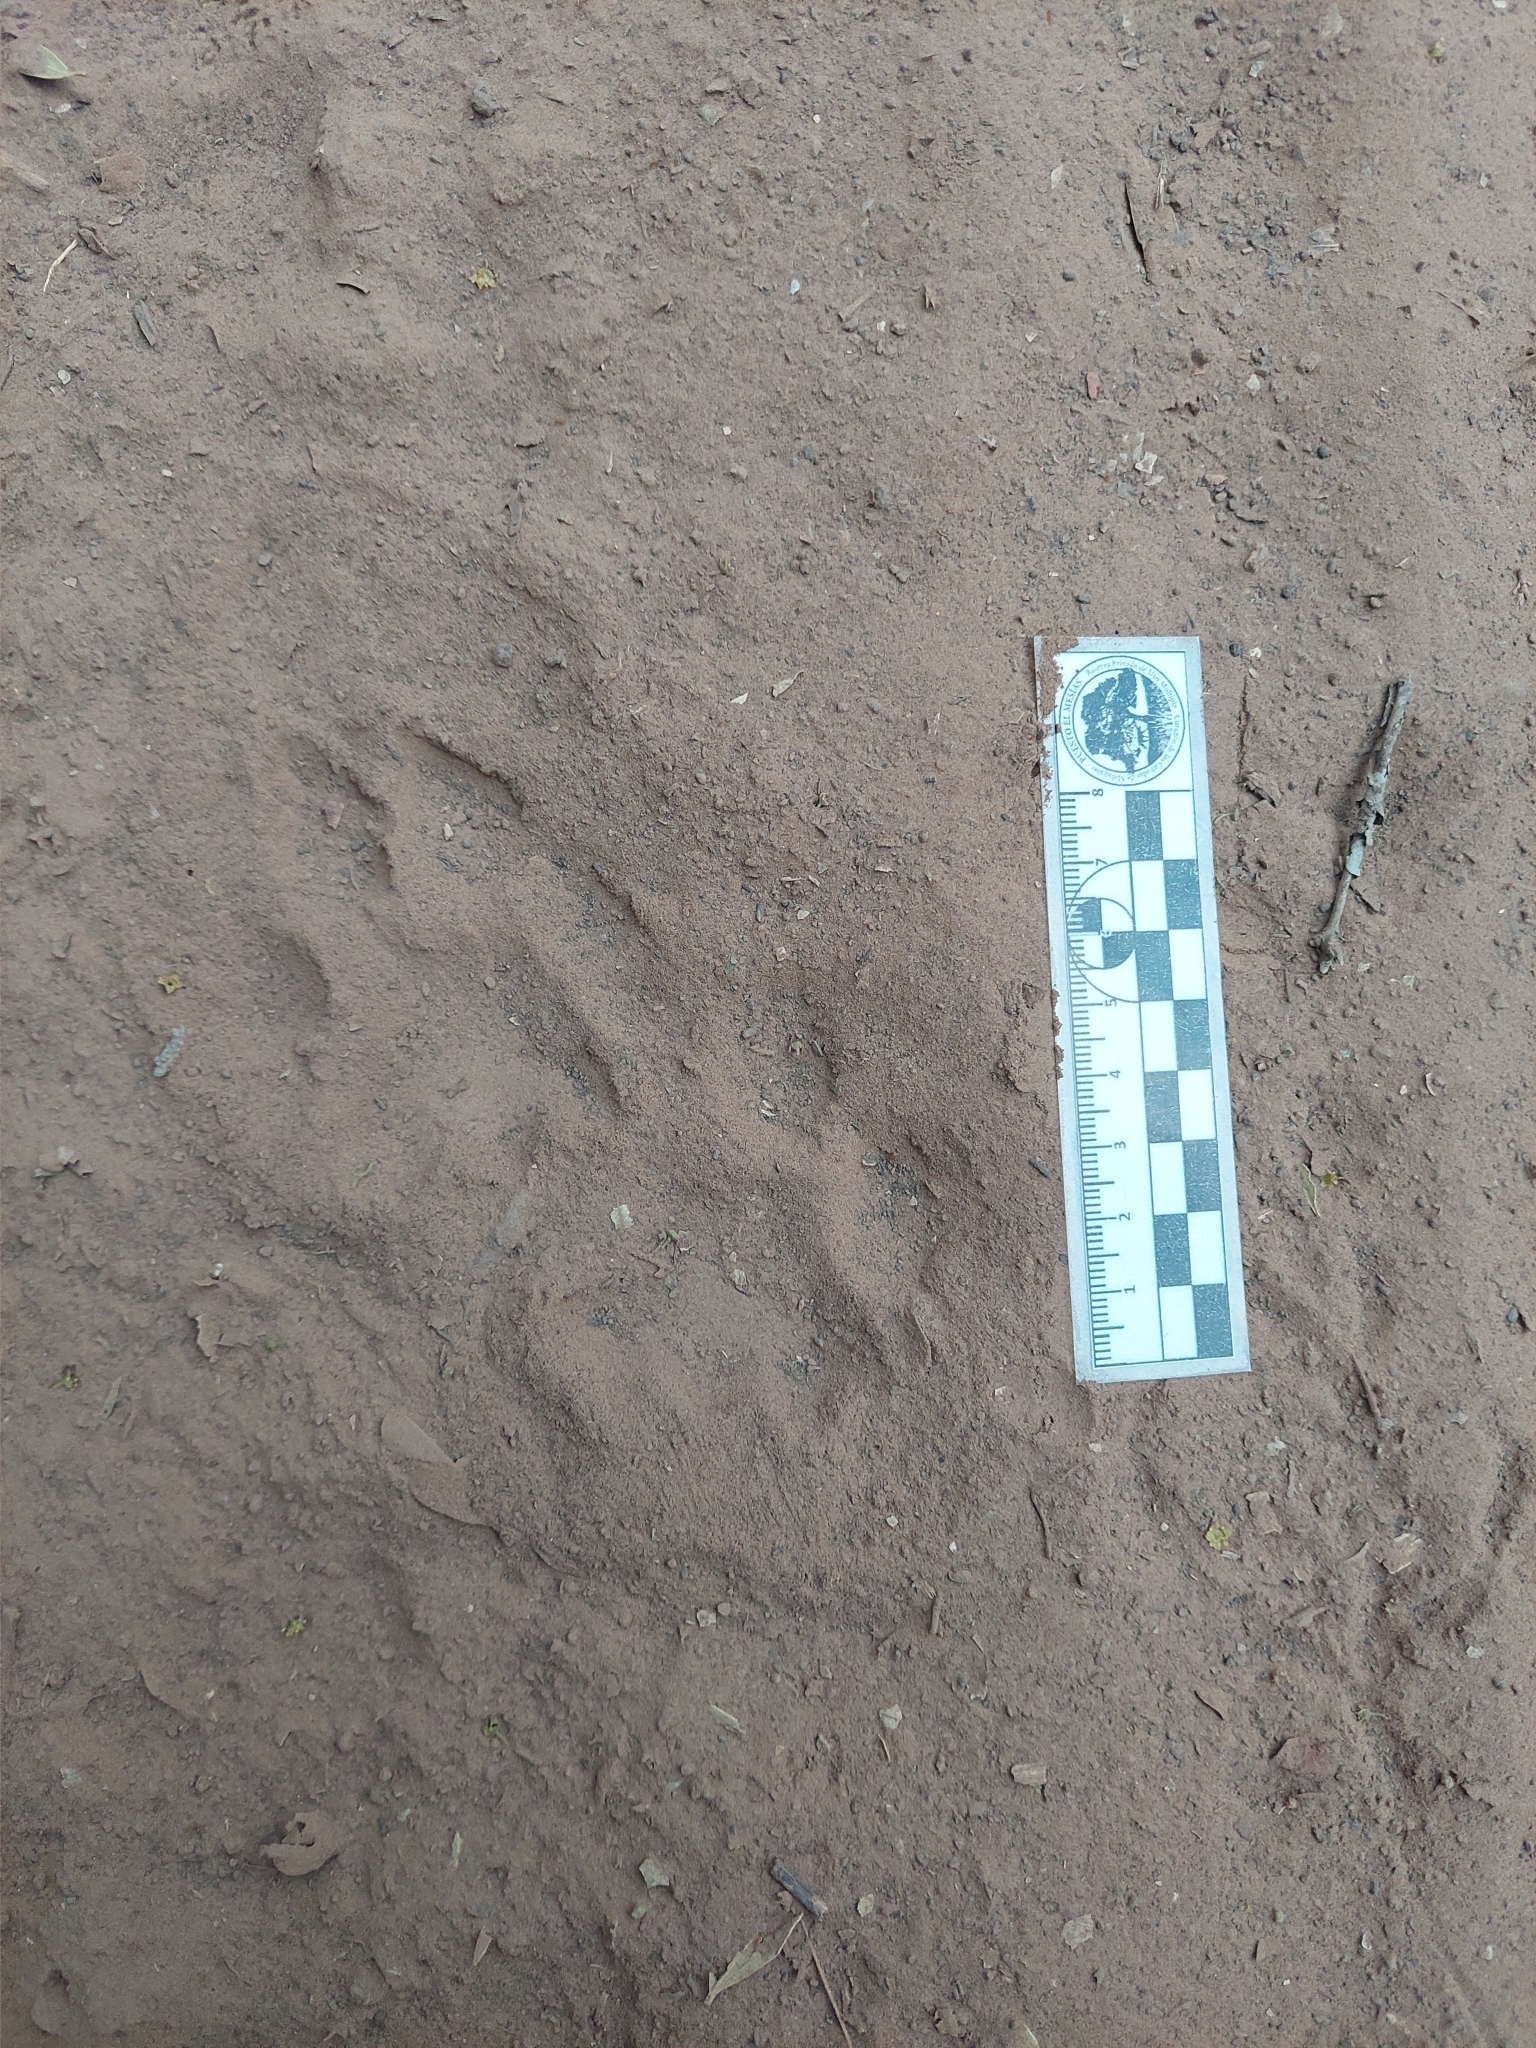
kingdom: Animalia
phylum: Chordata
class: Mammalia
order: Carnivora
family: Felidae
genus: Puma
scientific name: Puma concolor
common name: Puma
